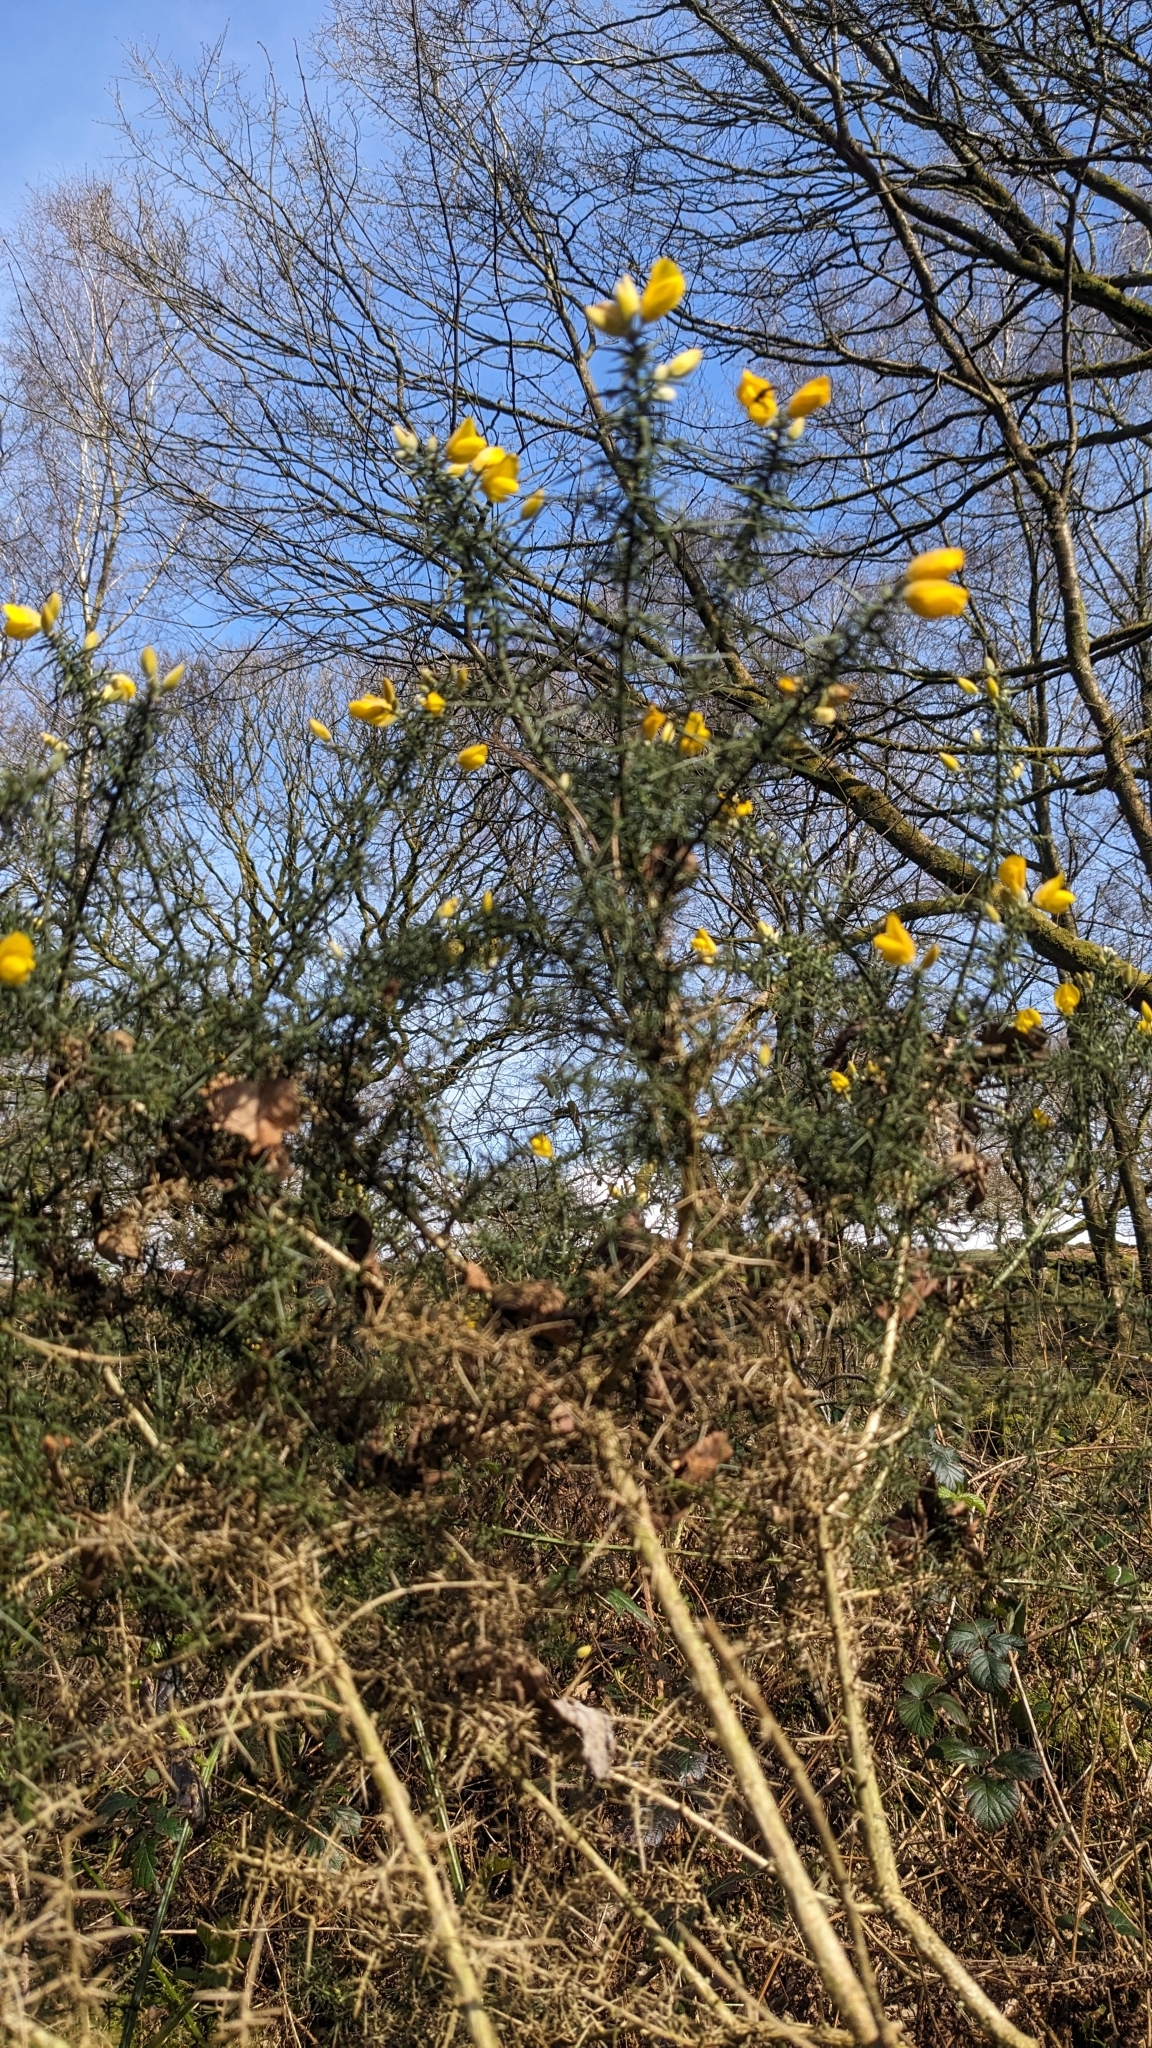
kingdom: Plantae
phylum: Tracheophyta
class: Magnoliopsida
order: Fabales
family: Fabaceae
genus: Ulex
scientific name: Ulex europaeus
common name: Common gorse
